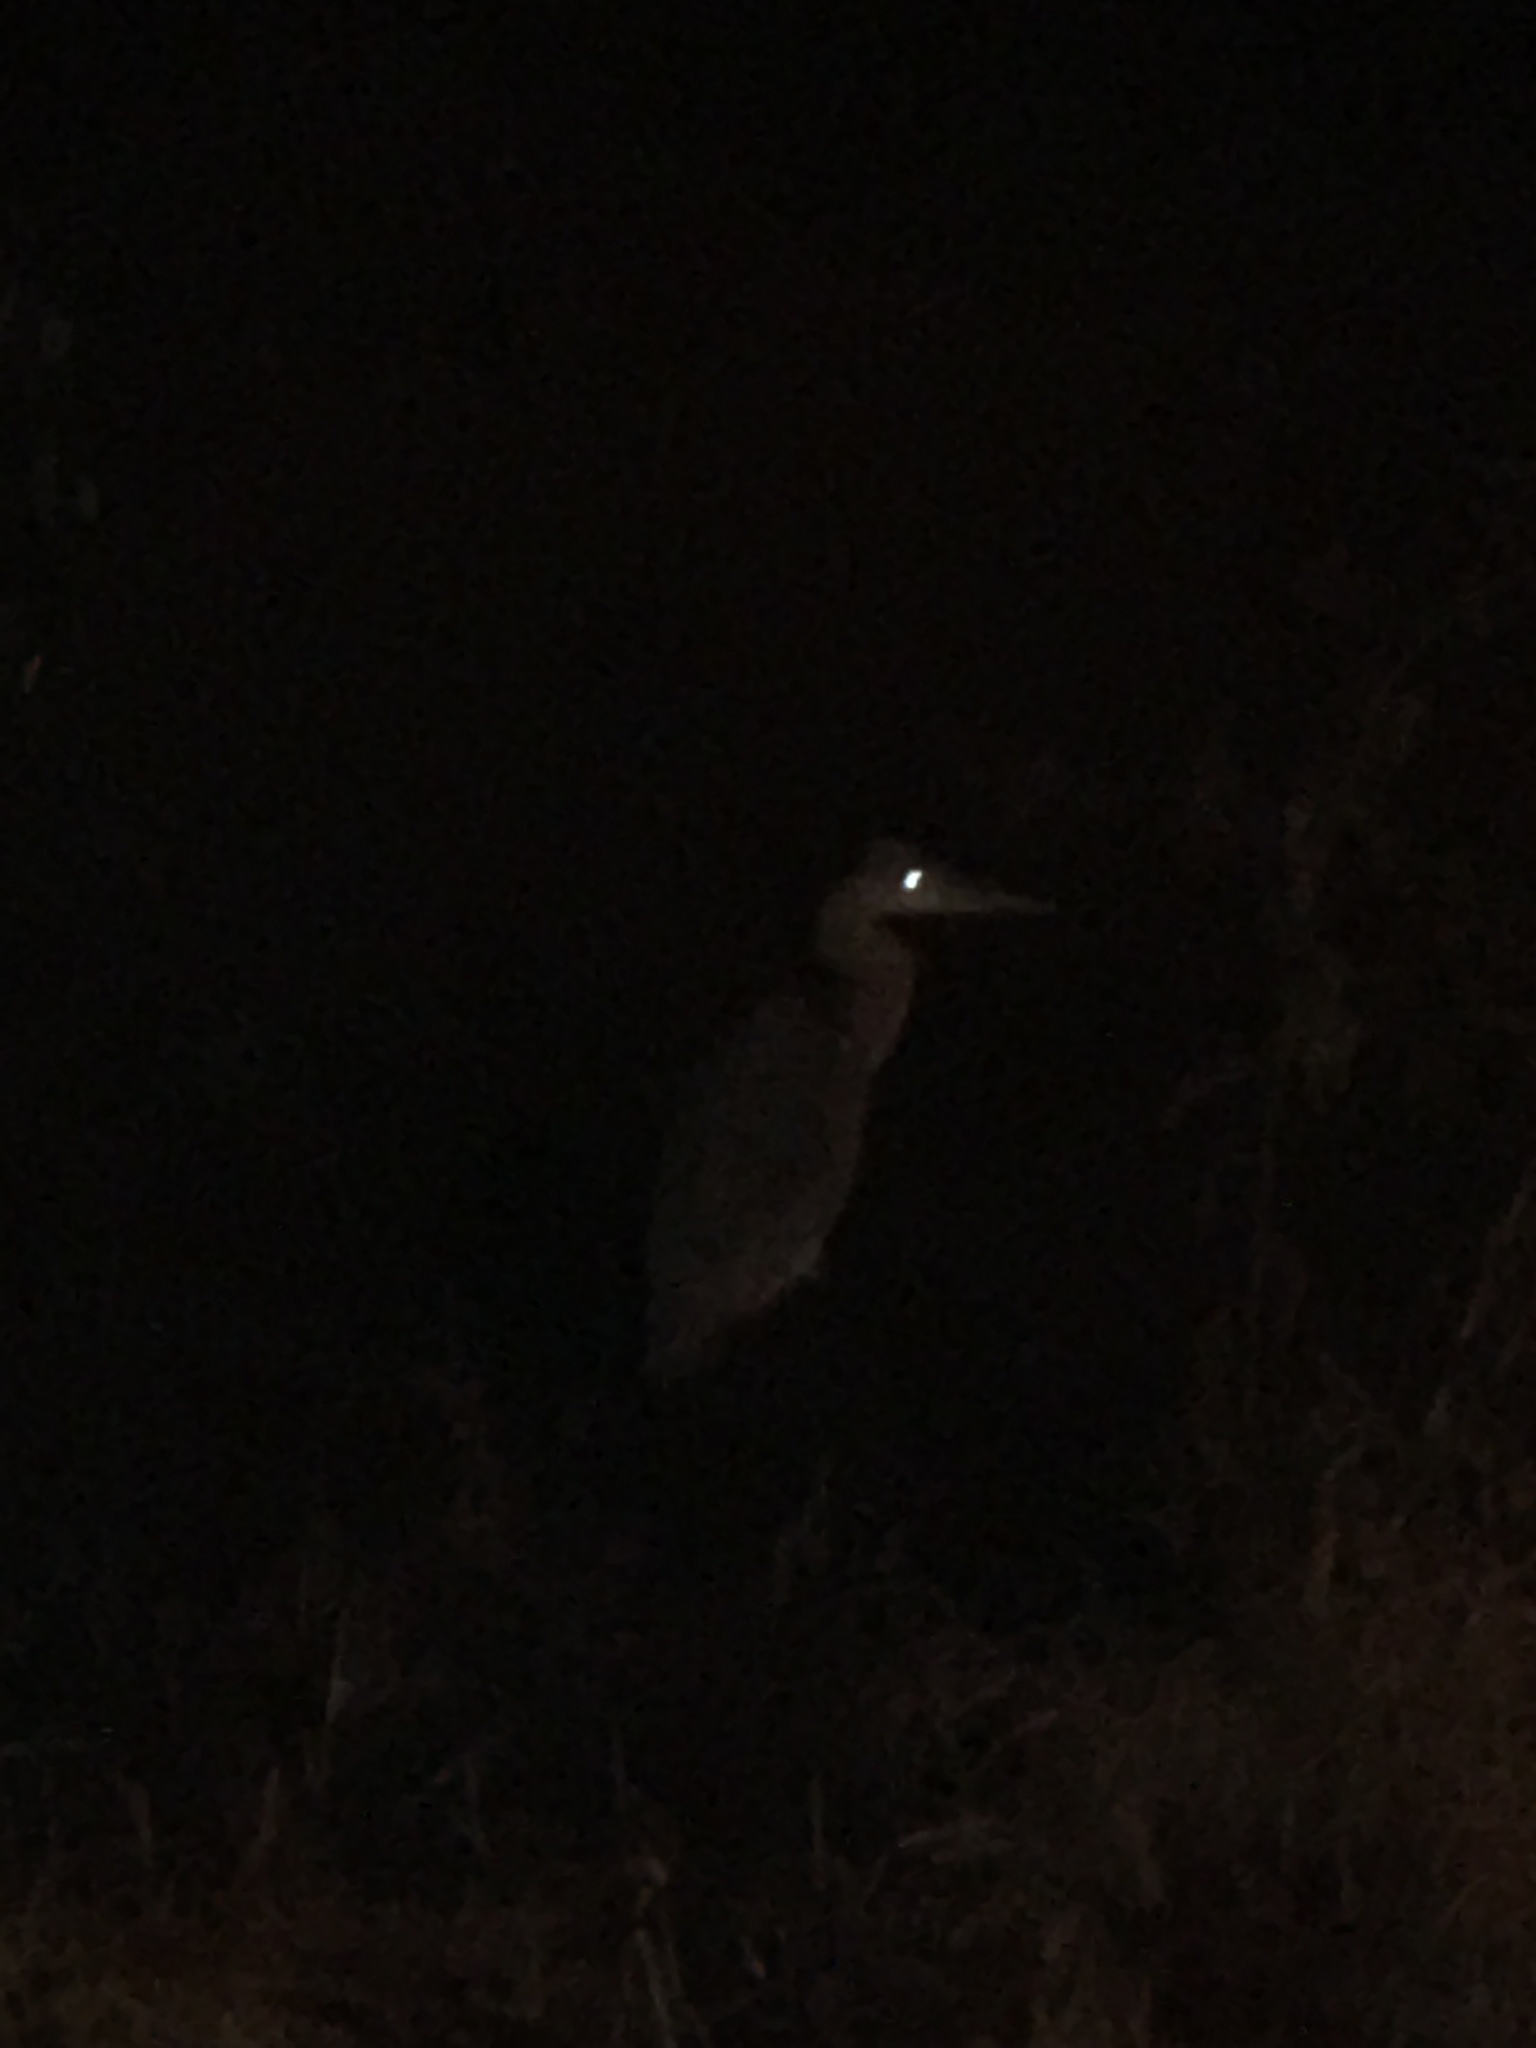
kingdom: Animalia
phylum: Chordata
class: Aves
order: Pelecaniformes
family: Ardeidae
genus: Ardea
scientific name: Ardea cinerea
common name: Grey heron
